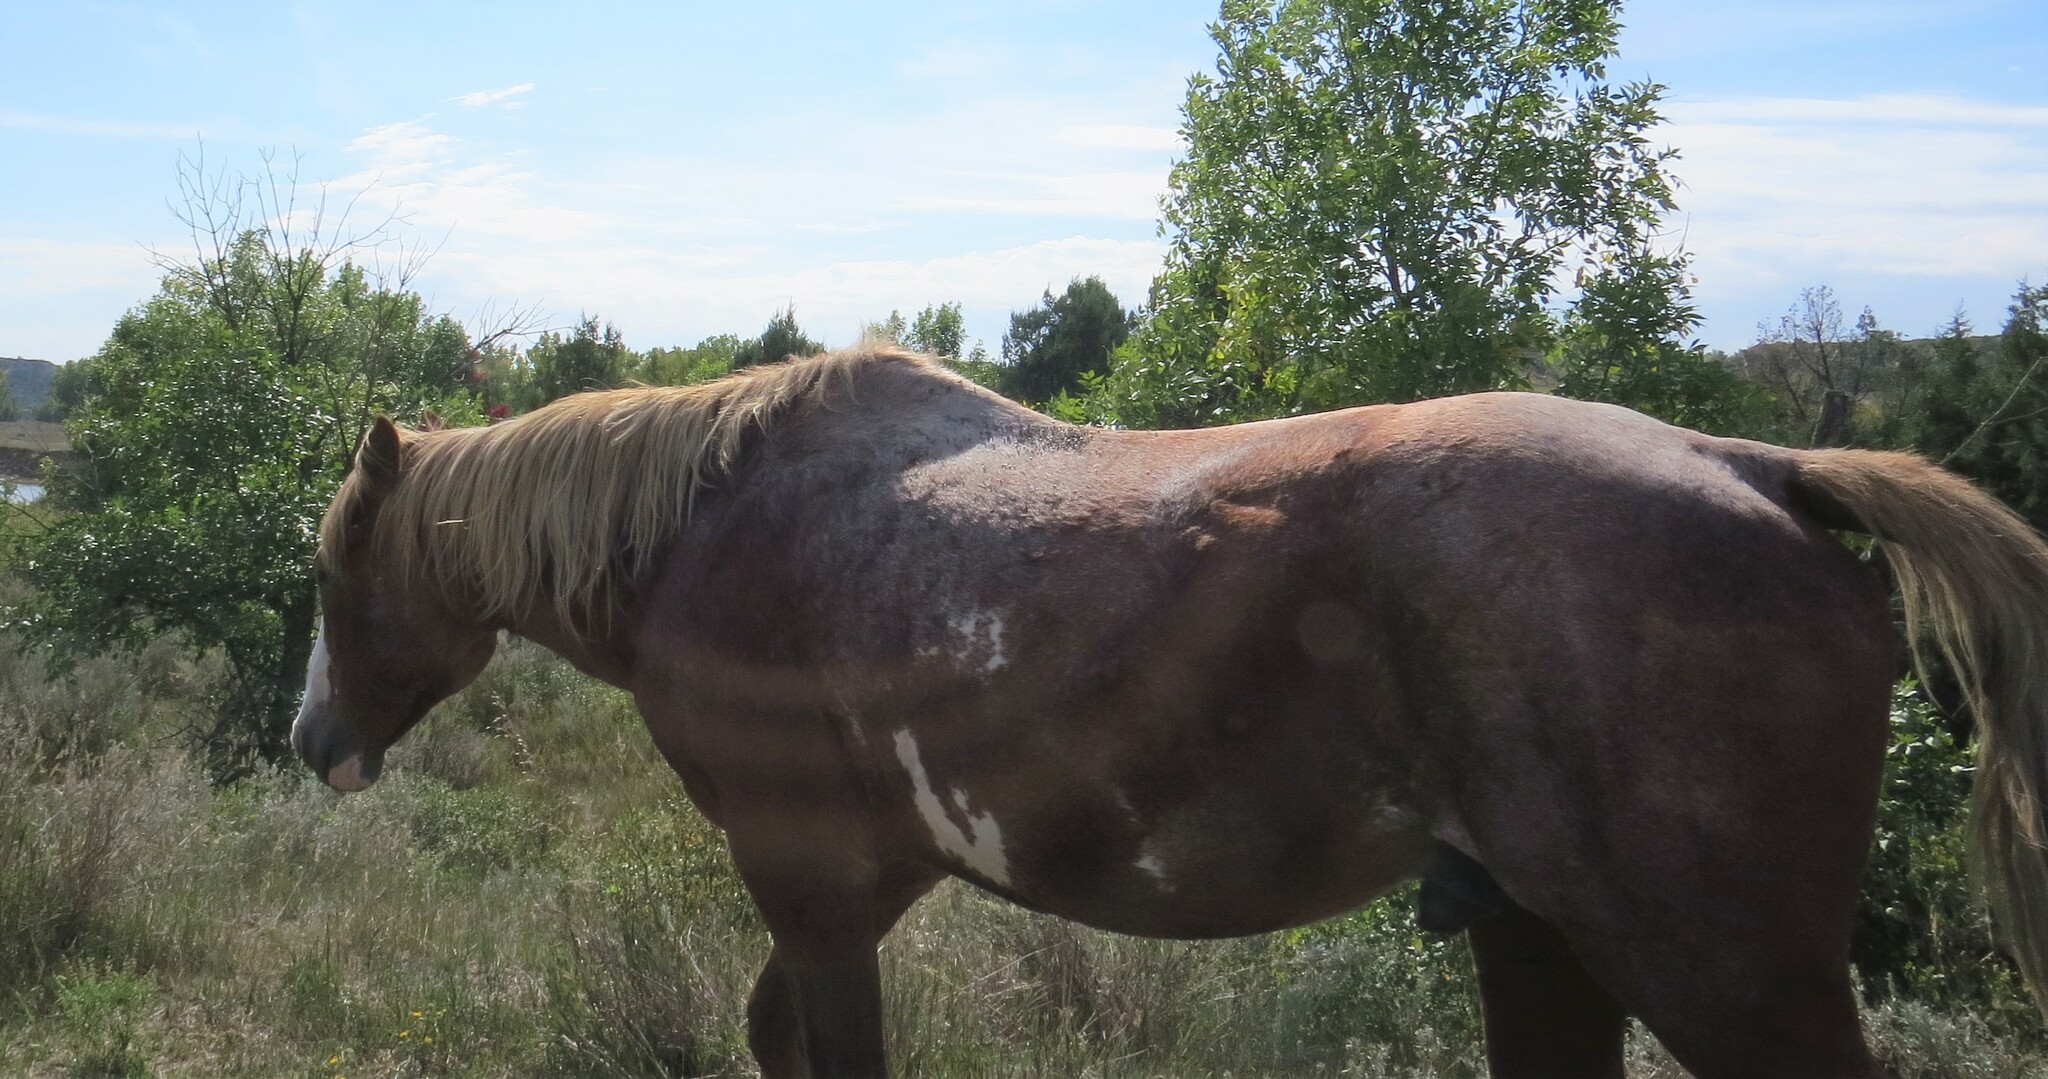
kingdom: Animalia
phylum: Chordata
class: Mammalia
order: Perissodactyla
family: Equidae
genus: Equus
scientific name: Equus caballus
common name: Horse
